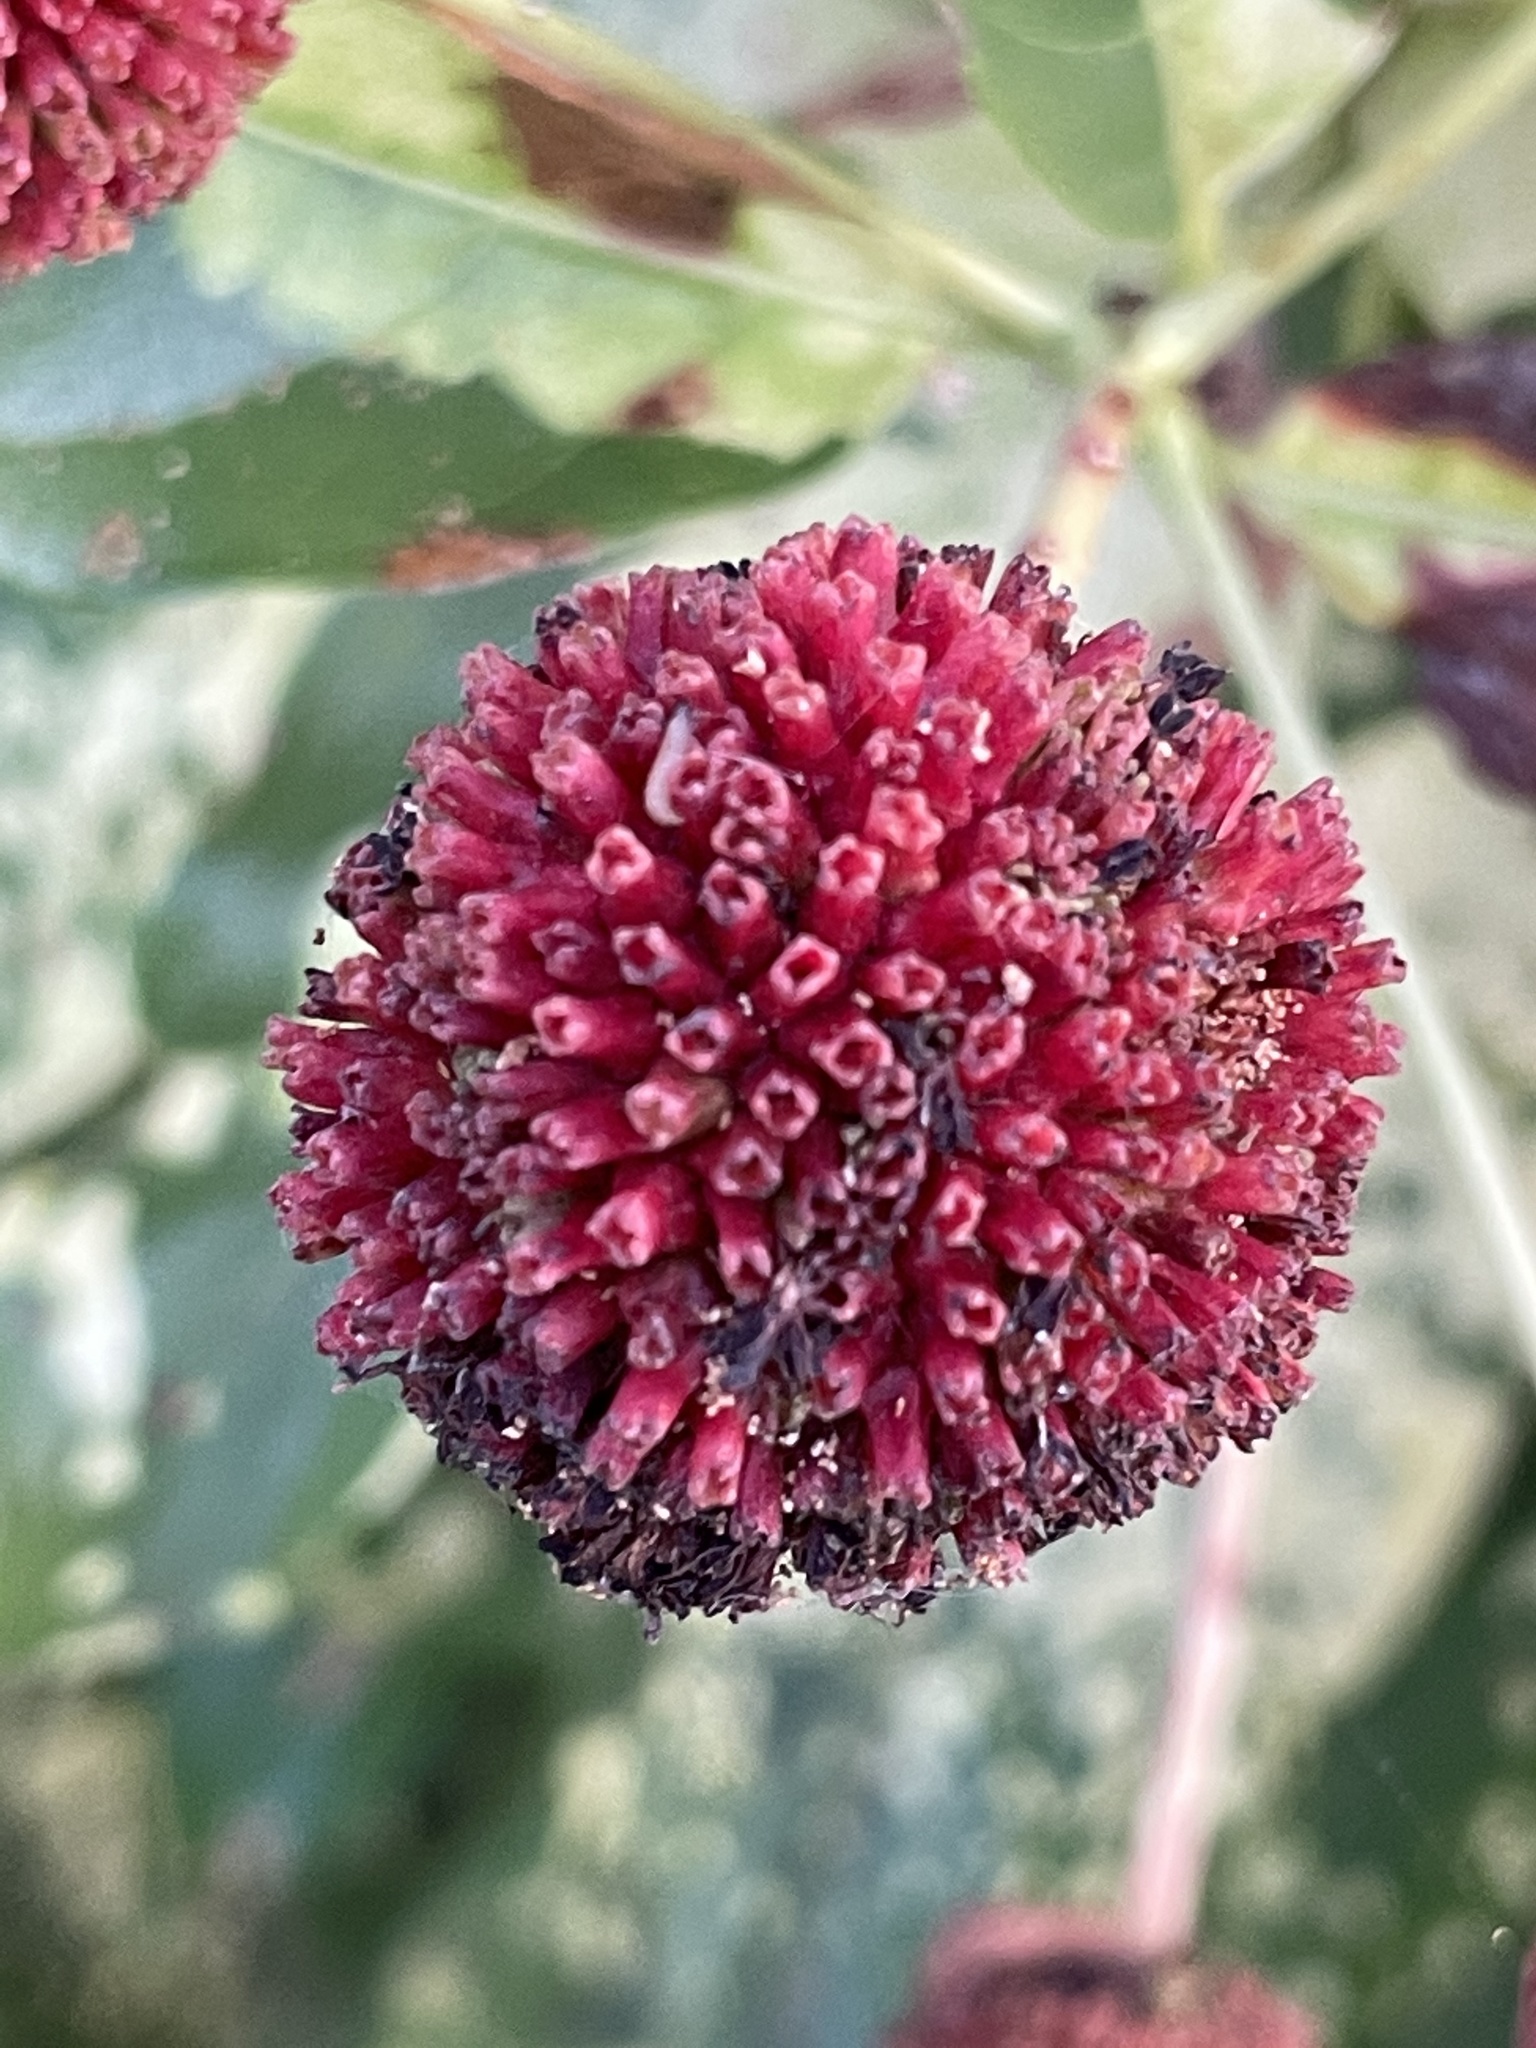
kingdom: Plantae
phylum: Tracheophyta
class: Magnoliopsida
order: Gentianales
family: Rubiaceae
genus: Cephalanthus
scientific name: Cephalanthus occidentalis
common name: Button-willow
